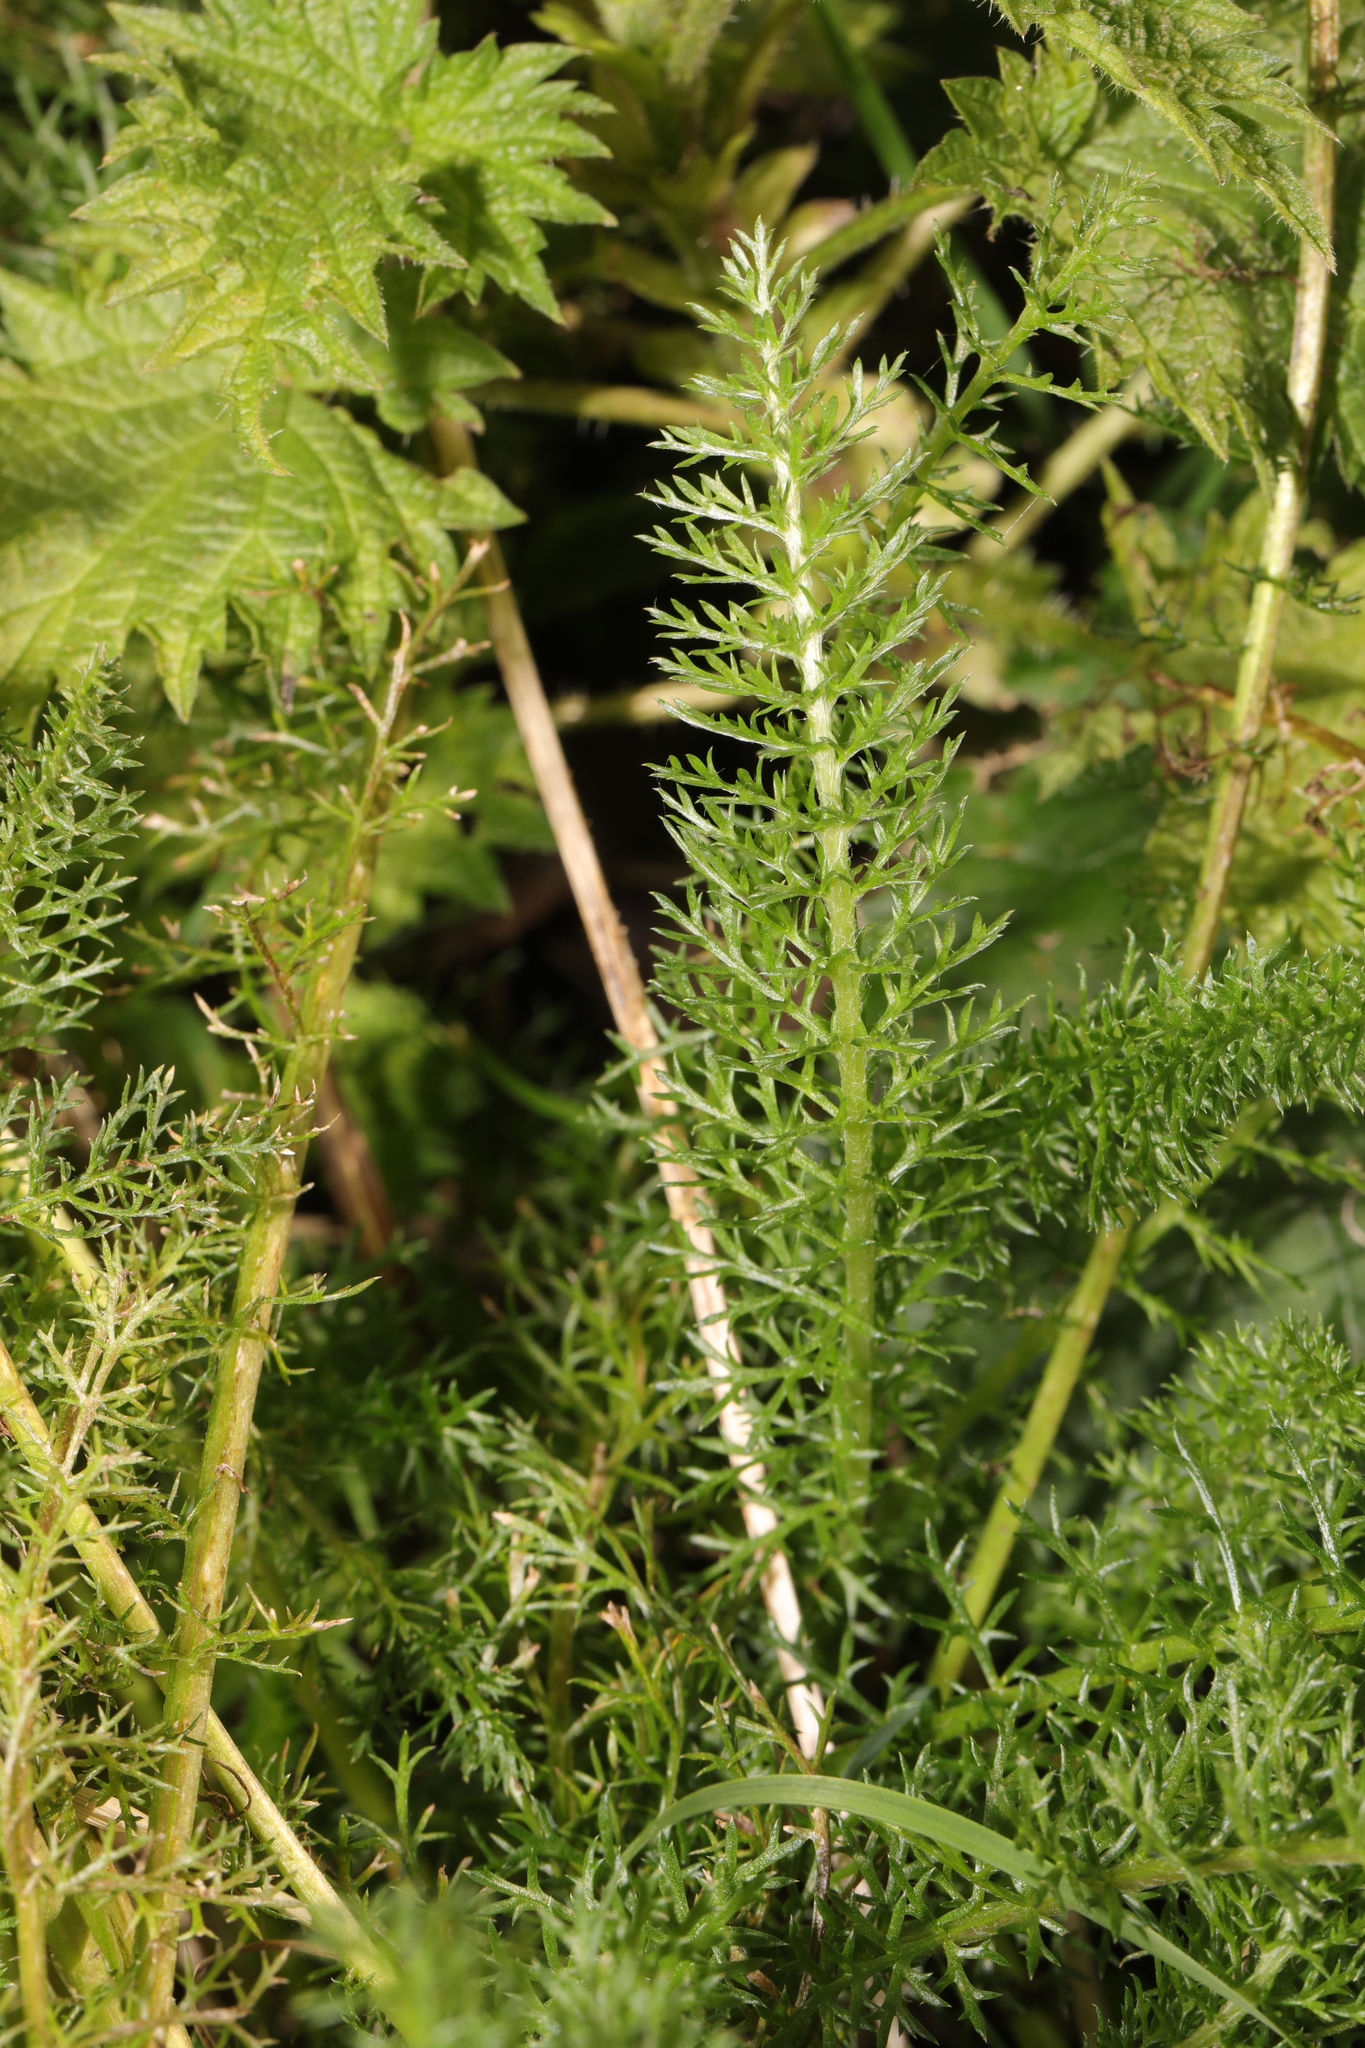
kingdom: Plantae
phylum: Tracheophyta
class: Magnoliopsida
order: Asterales
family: Asteraceae
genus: Achillea
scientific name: Achillea millefolium
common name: Yarrow
